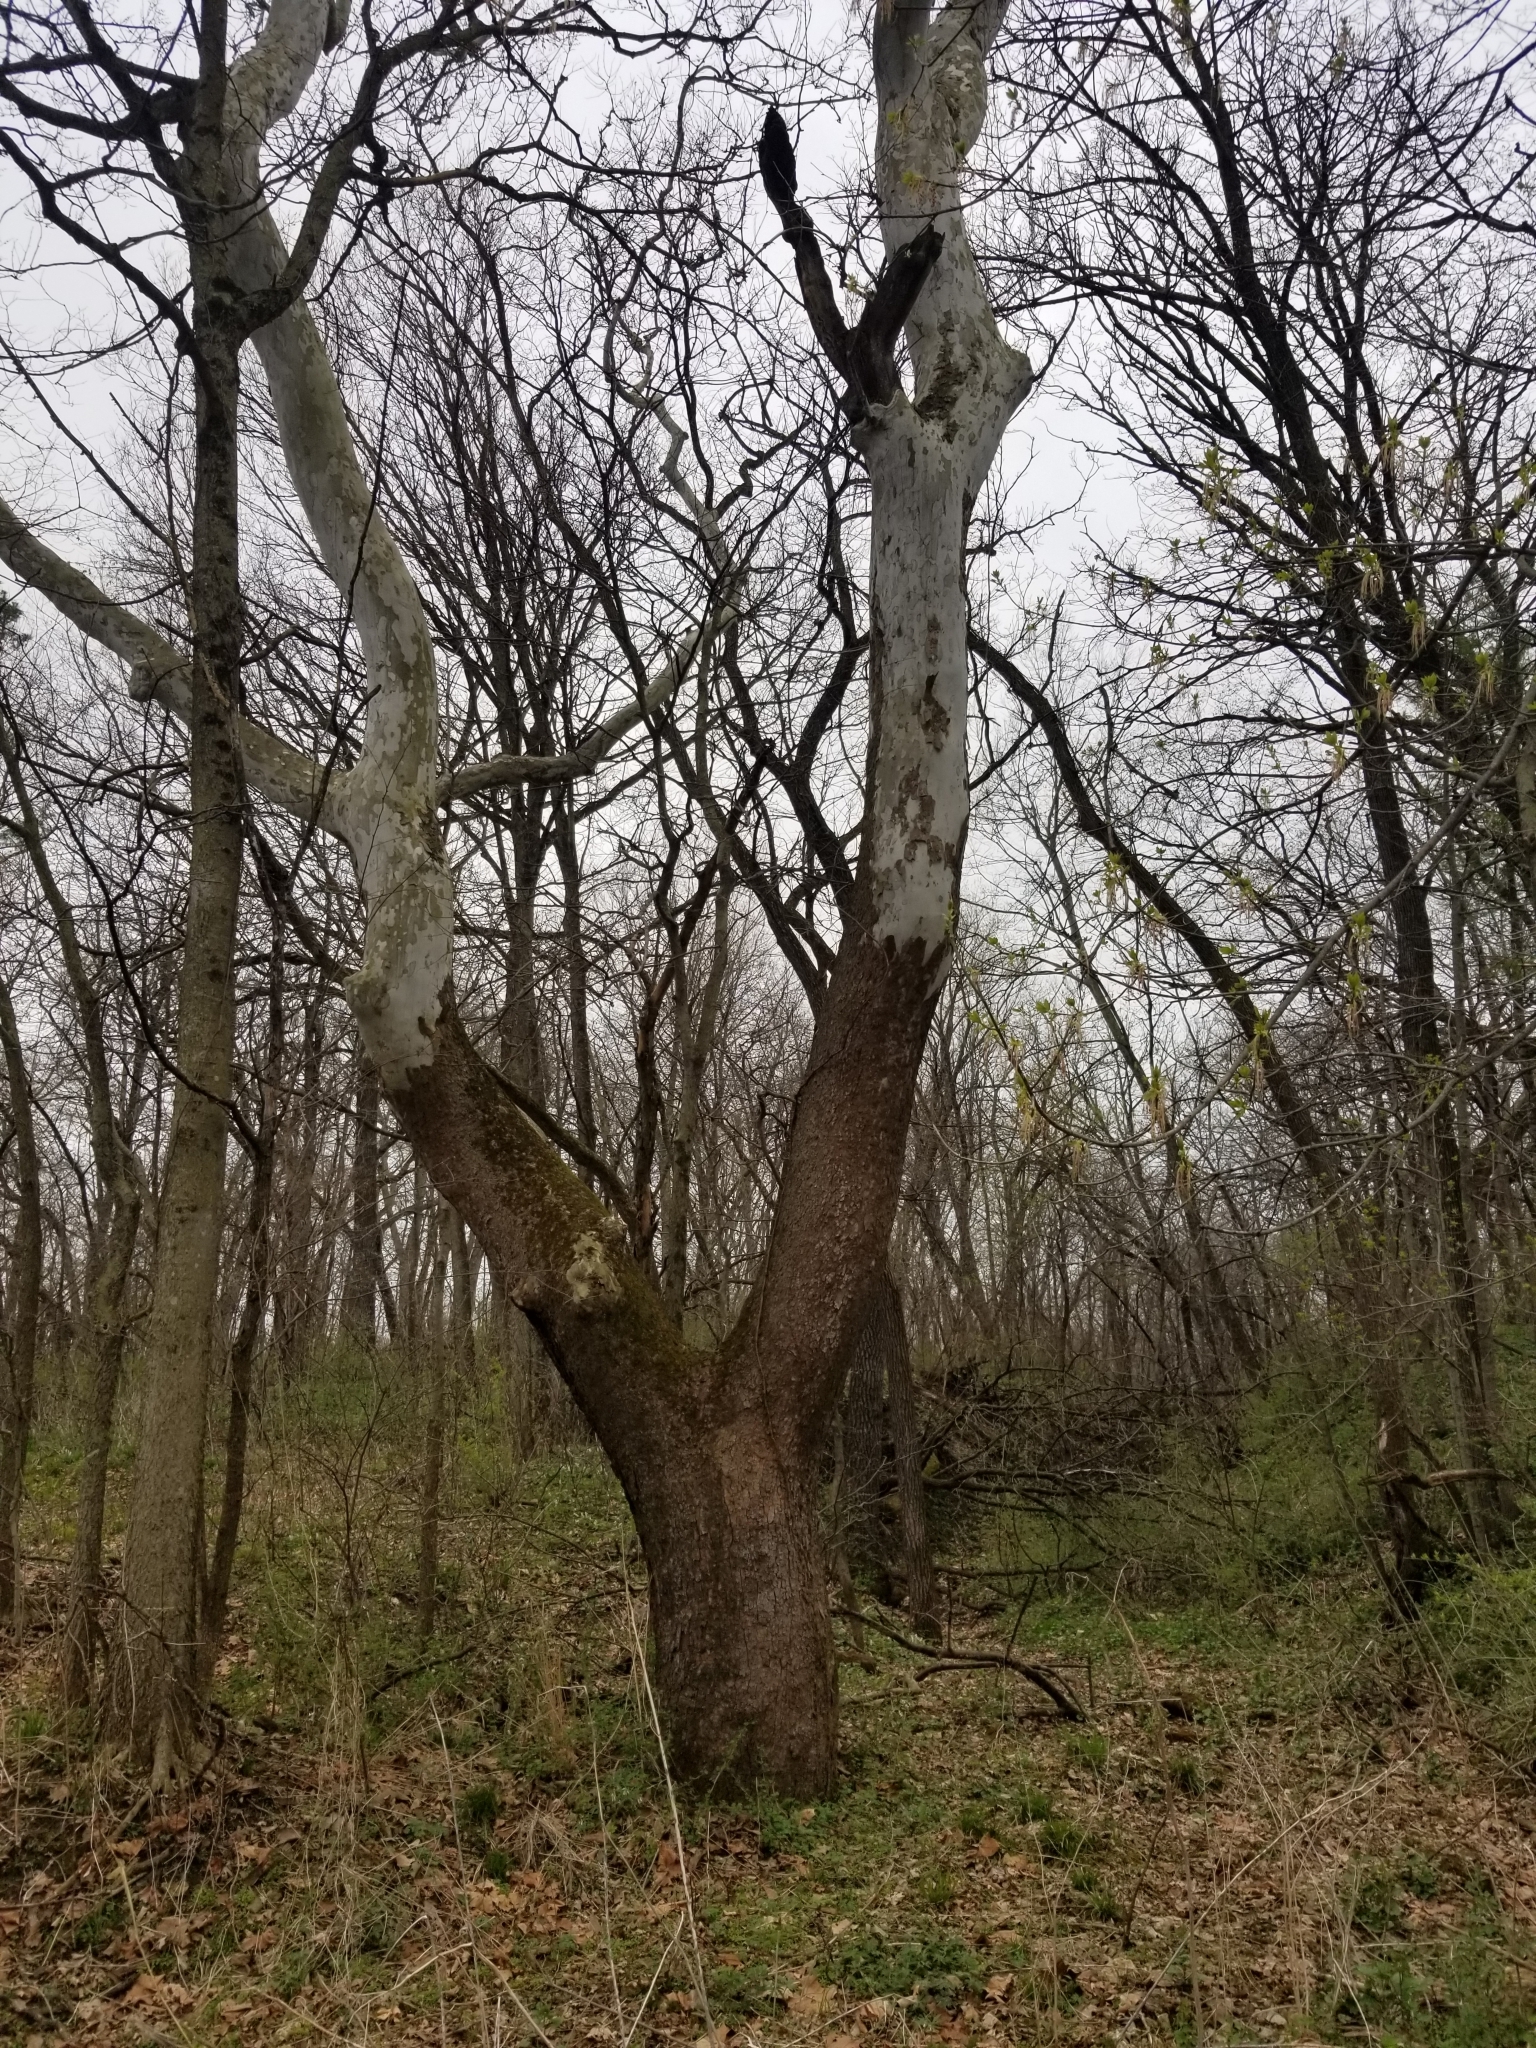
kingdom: Plantae
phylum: Tracheophyta
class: Magnoliopsida
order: Proteales
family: Platanaceae
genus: Platanus
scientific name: Platanus occidentalis
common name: American sycamore
